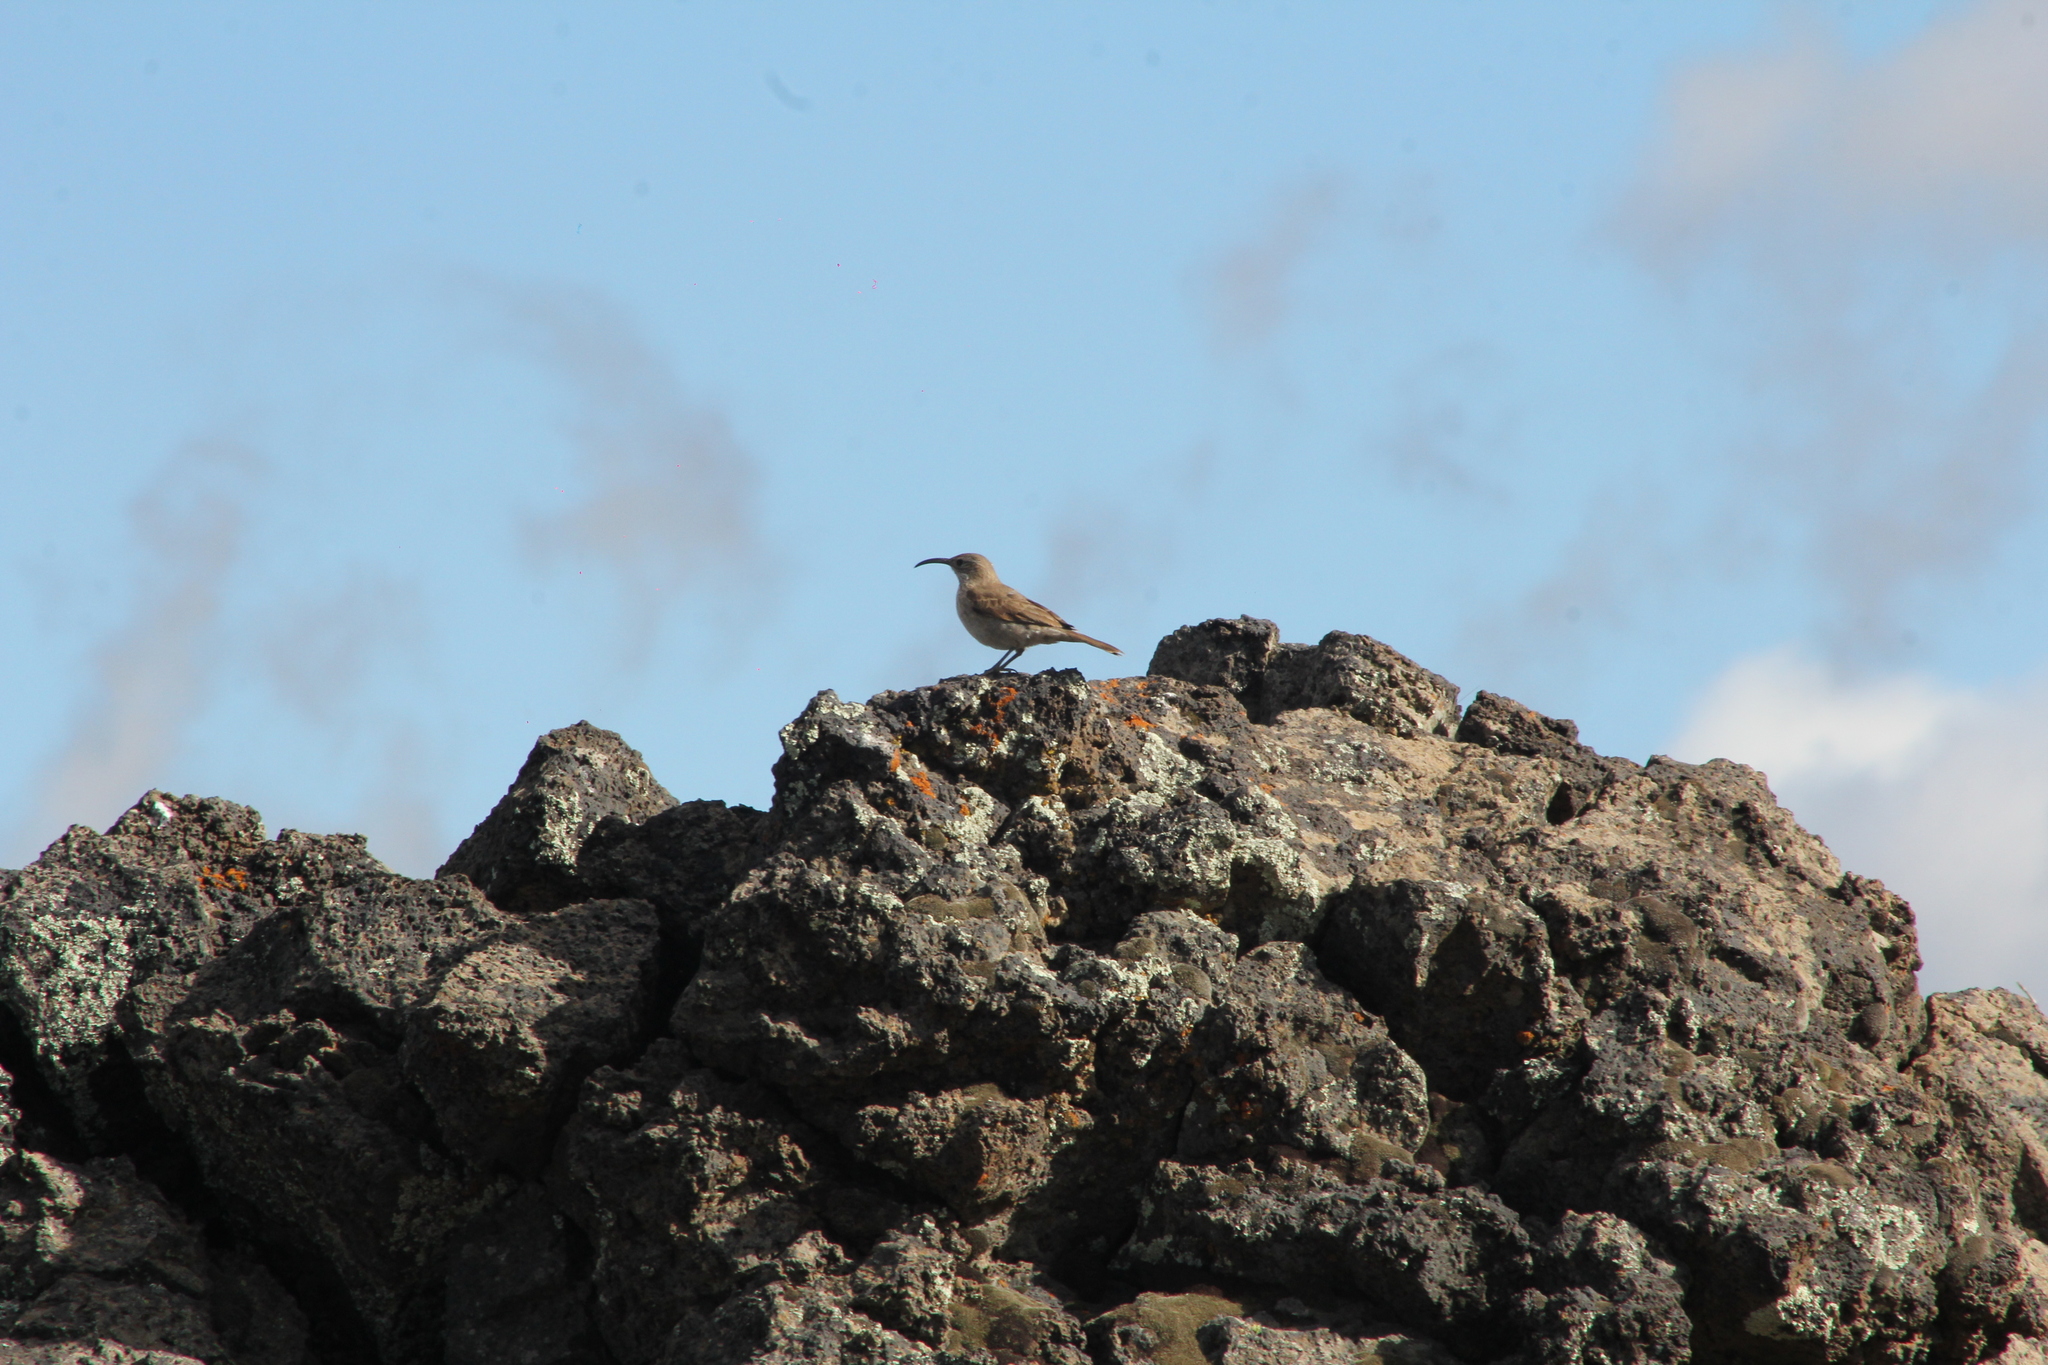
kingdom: Animalia
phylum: Chordata
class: Aves
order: Passeriformes
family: Furnariidae
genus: Upucerthia
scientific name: Upucerthia dumetaria
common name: Scale-throated earthcreeper
